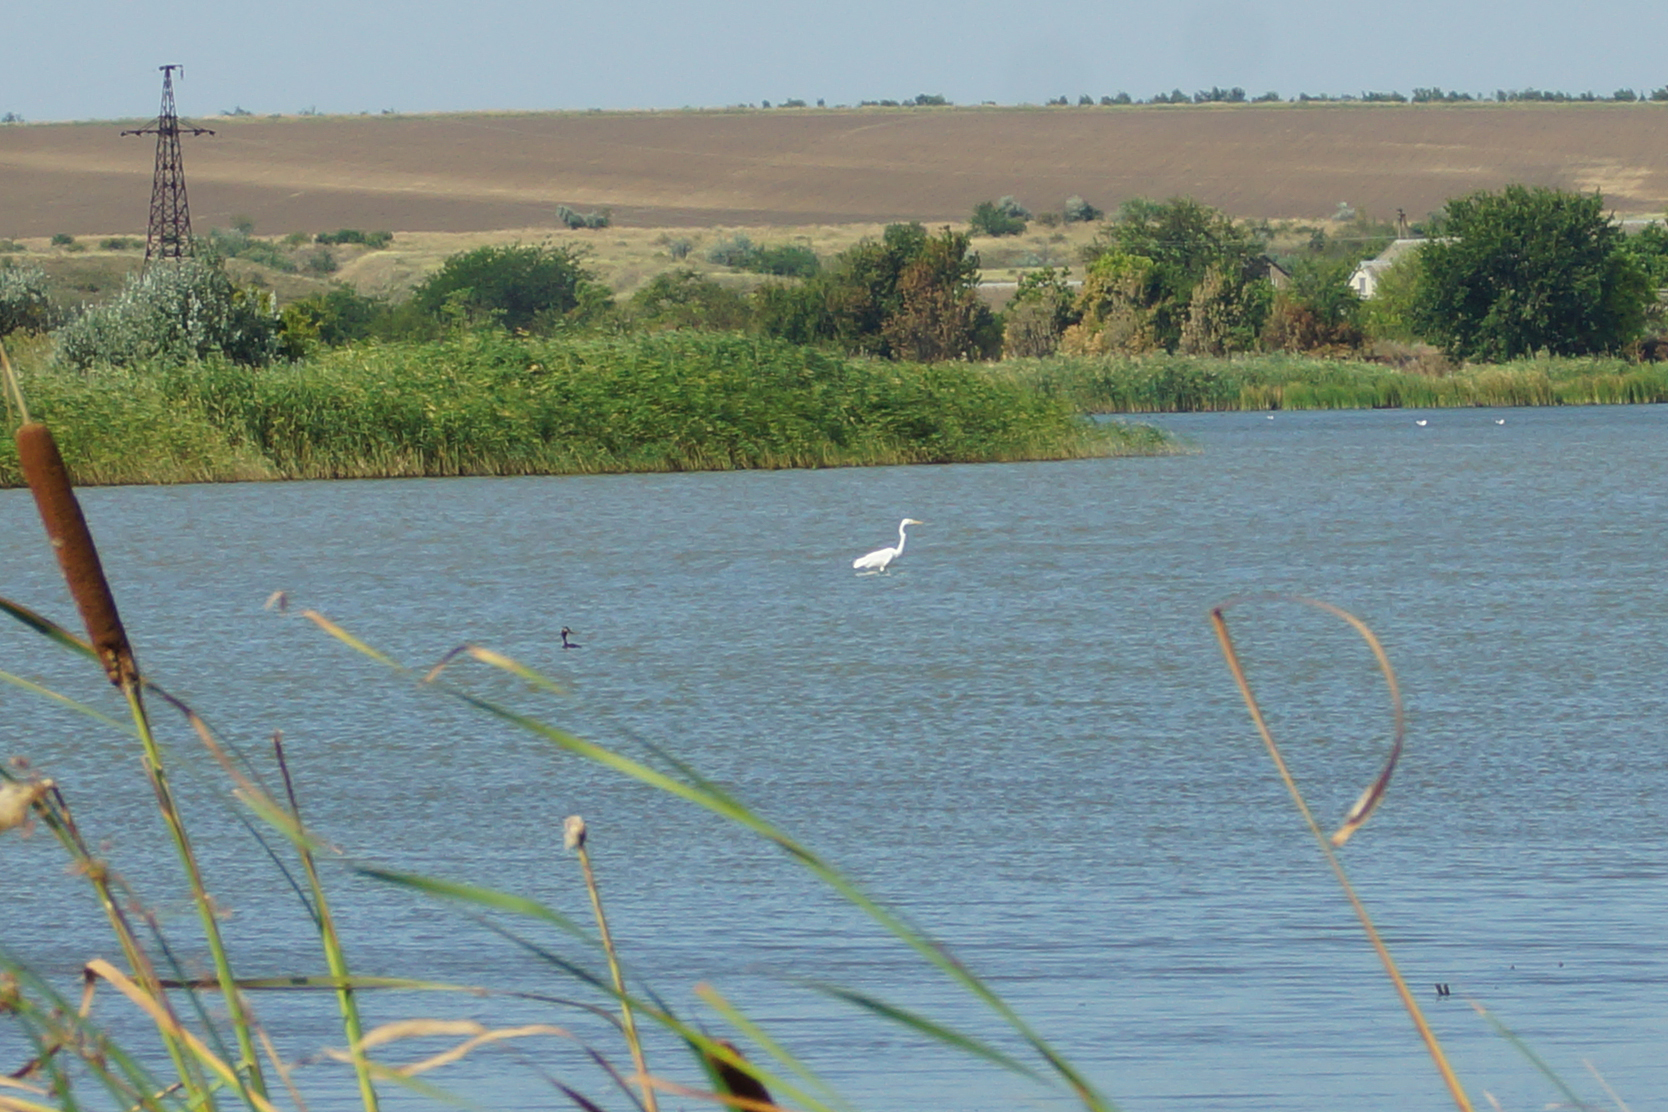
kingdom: Animalia
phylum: Chordata
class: Aves
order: Pelecaniformes
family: Ardeidae
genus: Ardea
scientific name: Ardea alba
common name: Great egret
